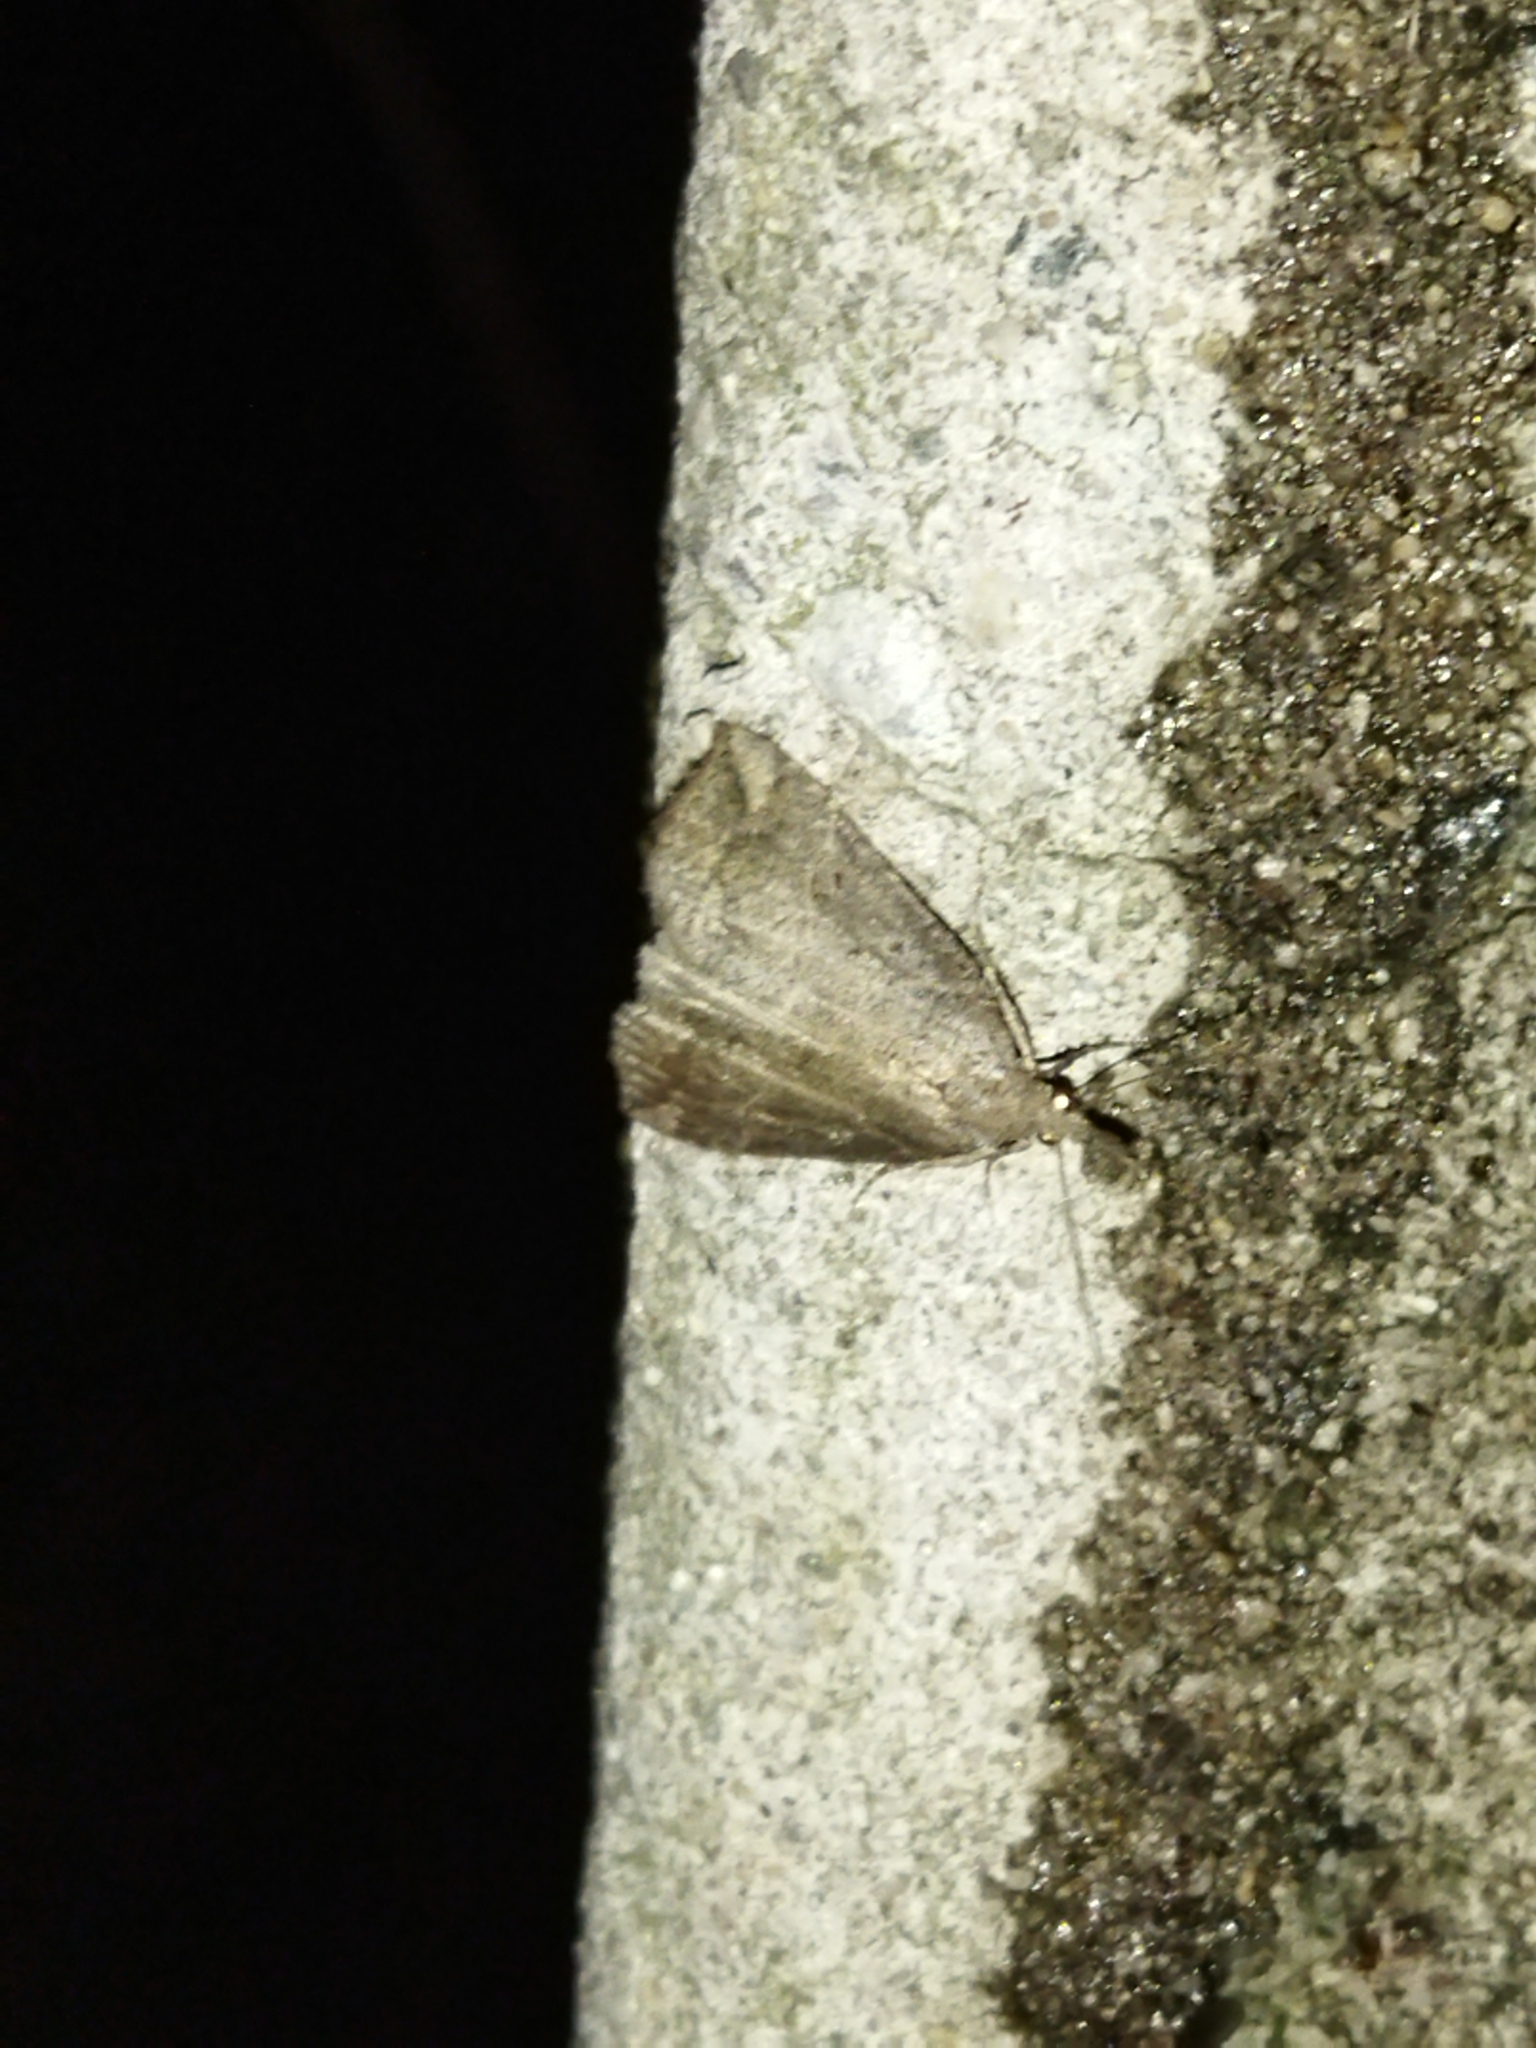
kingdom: Animalia
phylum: Arthropoda
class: Insecta
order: Lepidoptera
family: Erebidae
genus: Hypena
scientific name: Hypena rostralis
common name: Buttoned snout
